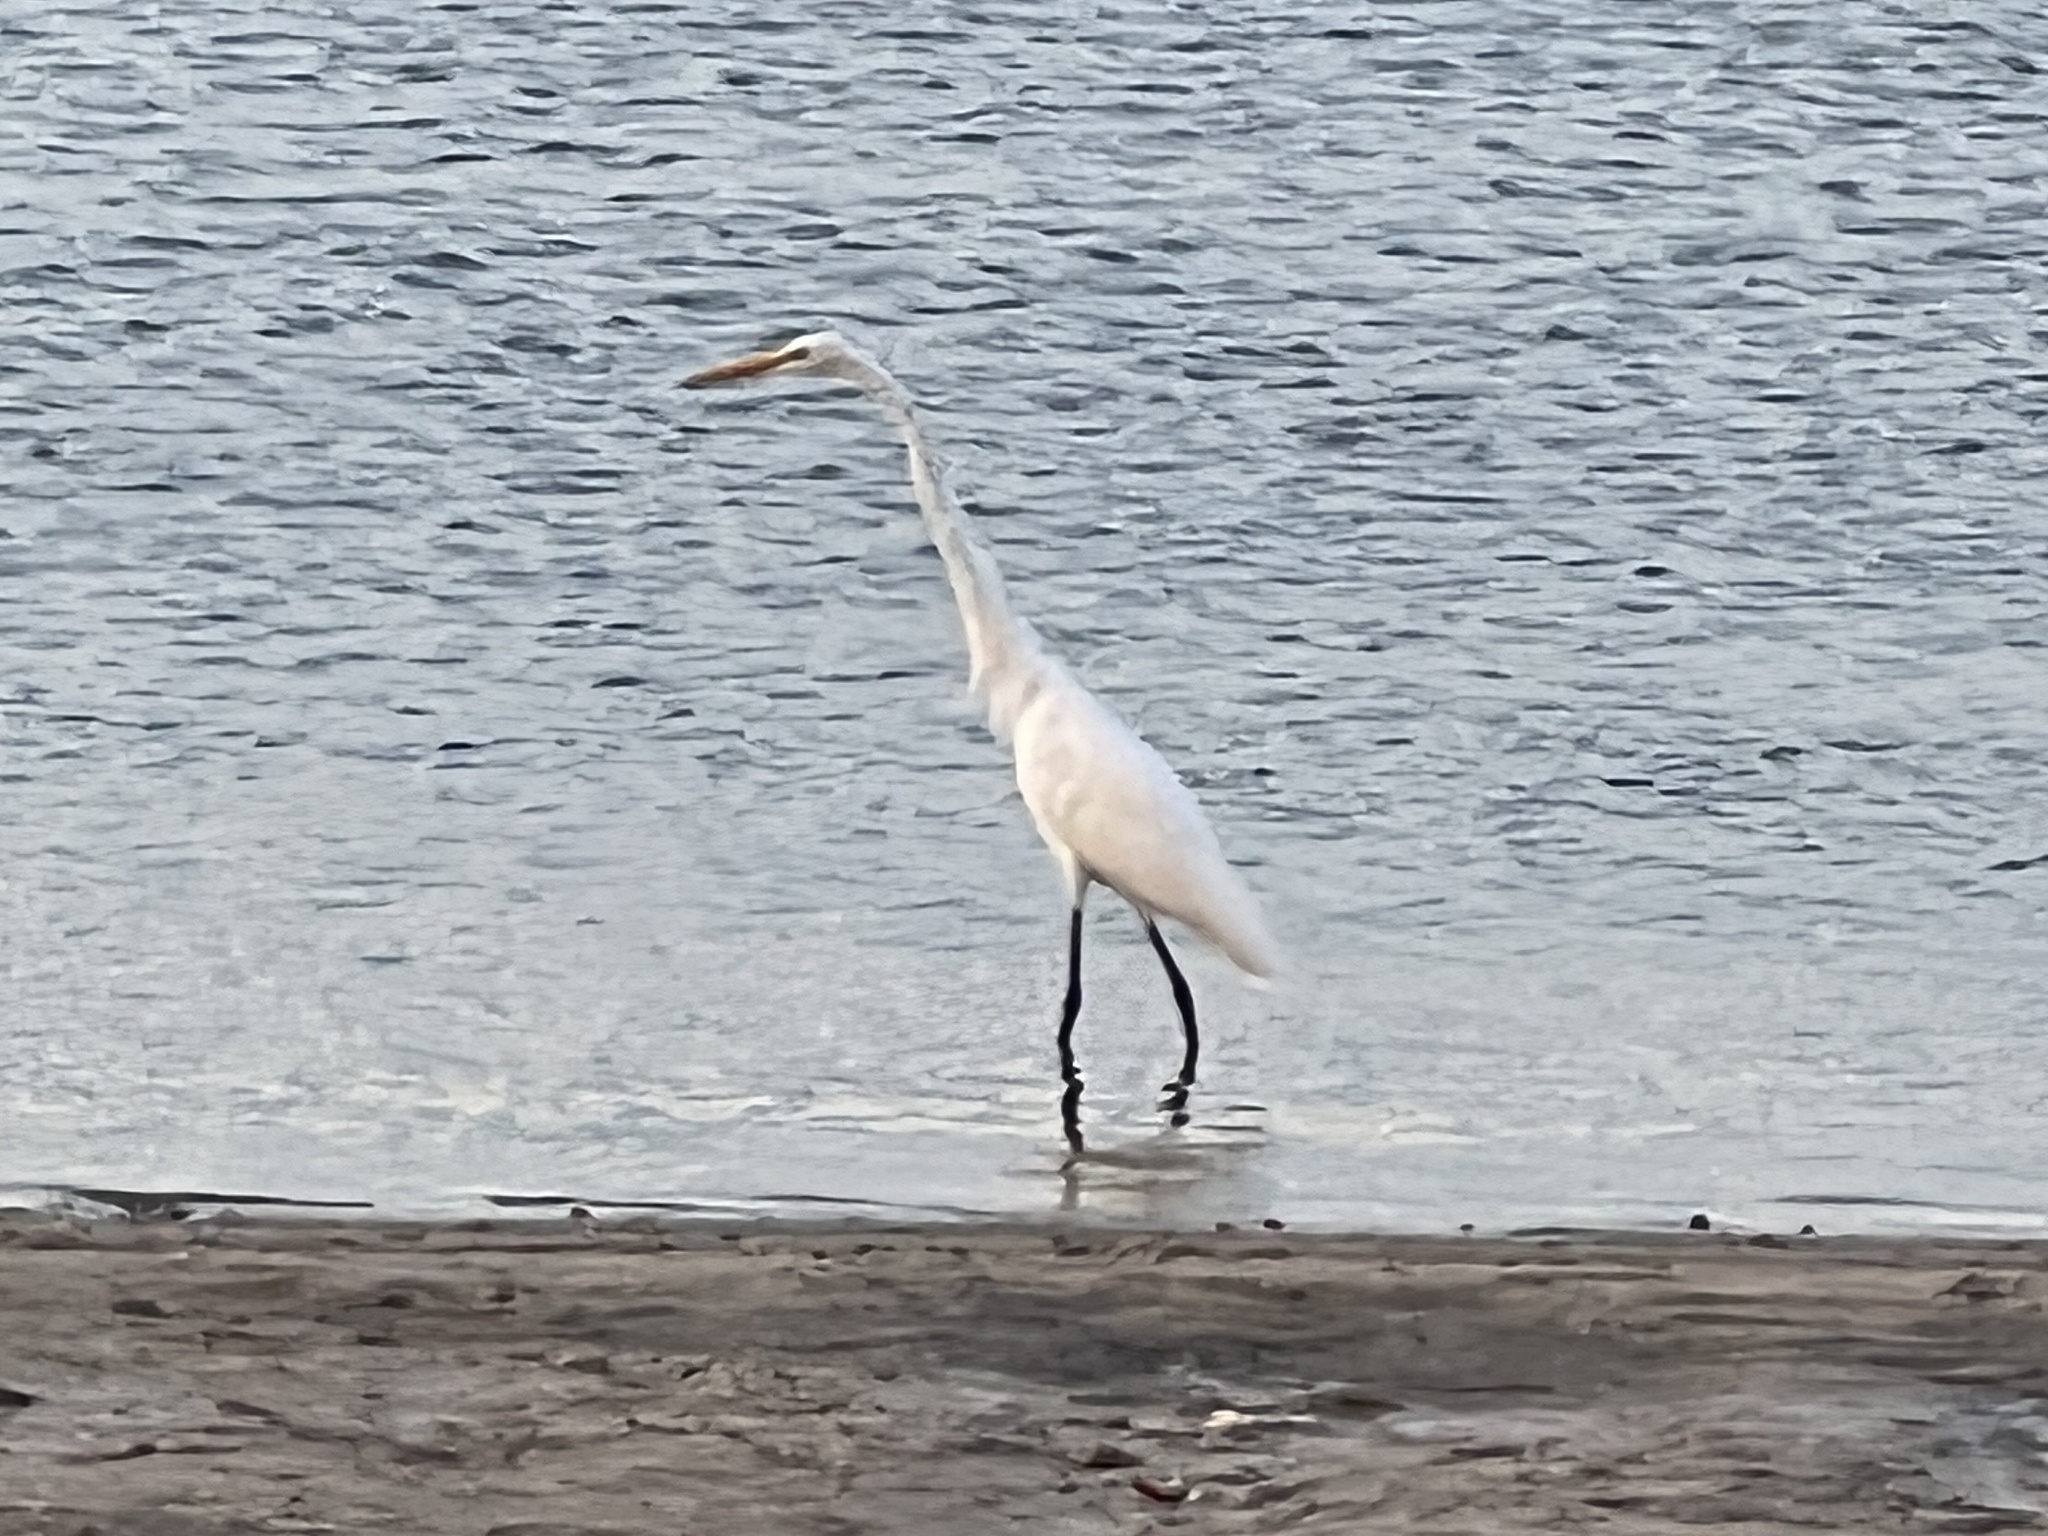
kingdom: Animalia
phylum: Chordata
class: Aves
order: Pelecaniformes
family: Ardeidae
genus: Ardea
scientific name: Ardea alba
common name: Great egret
